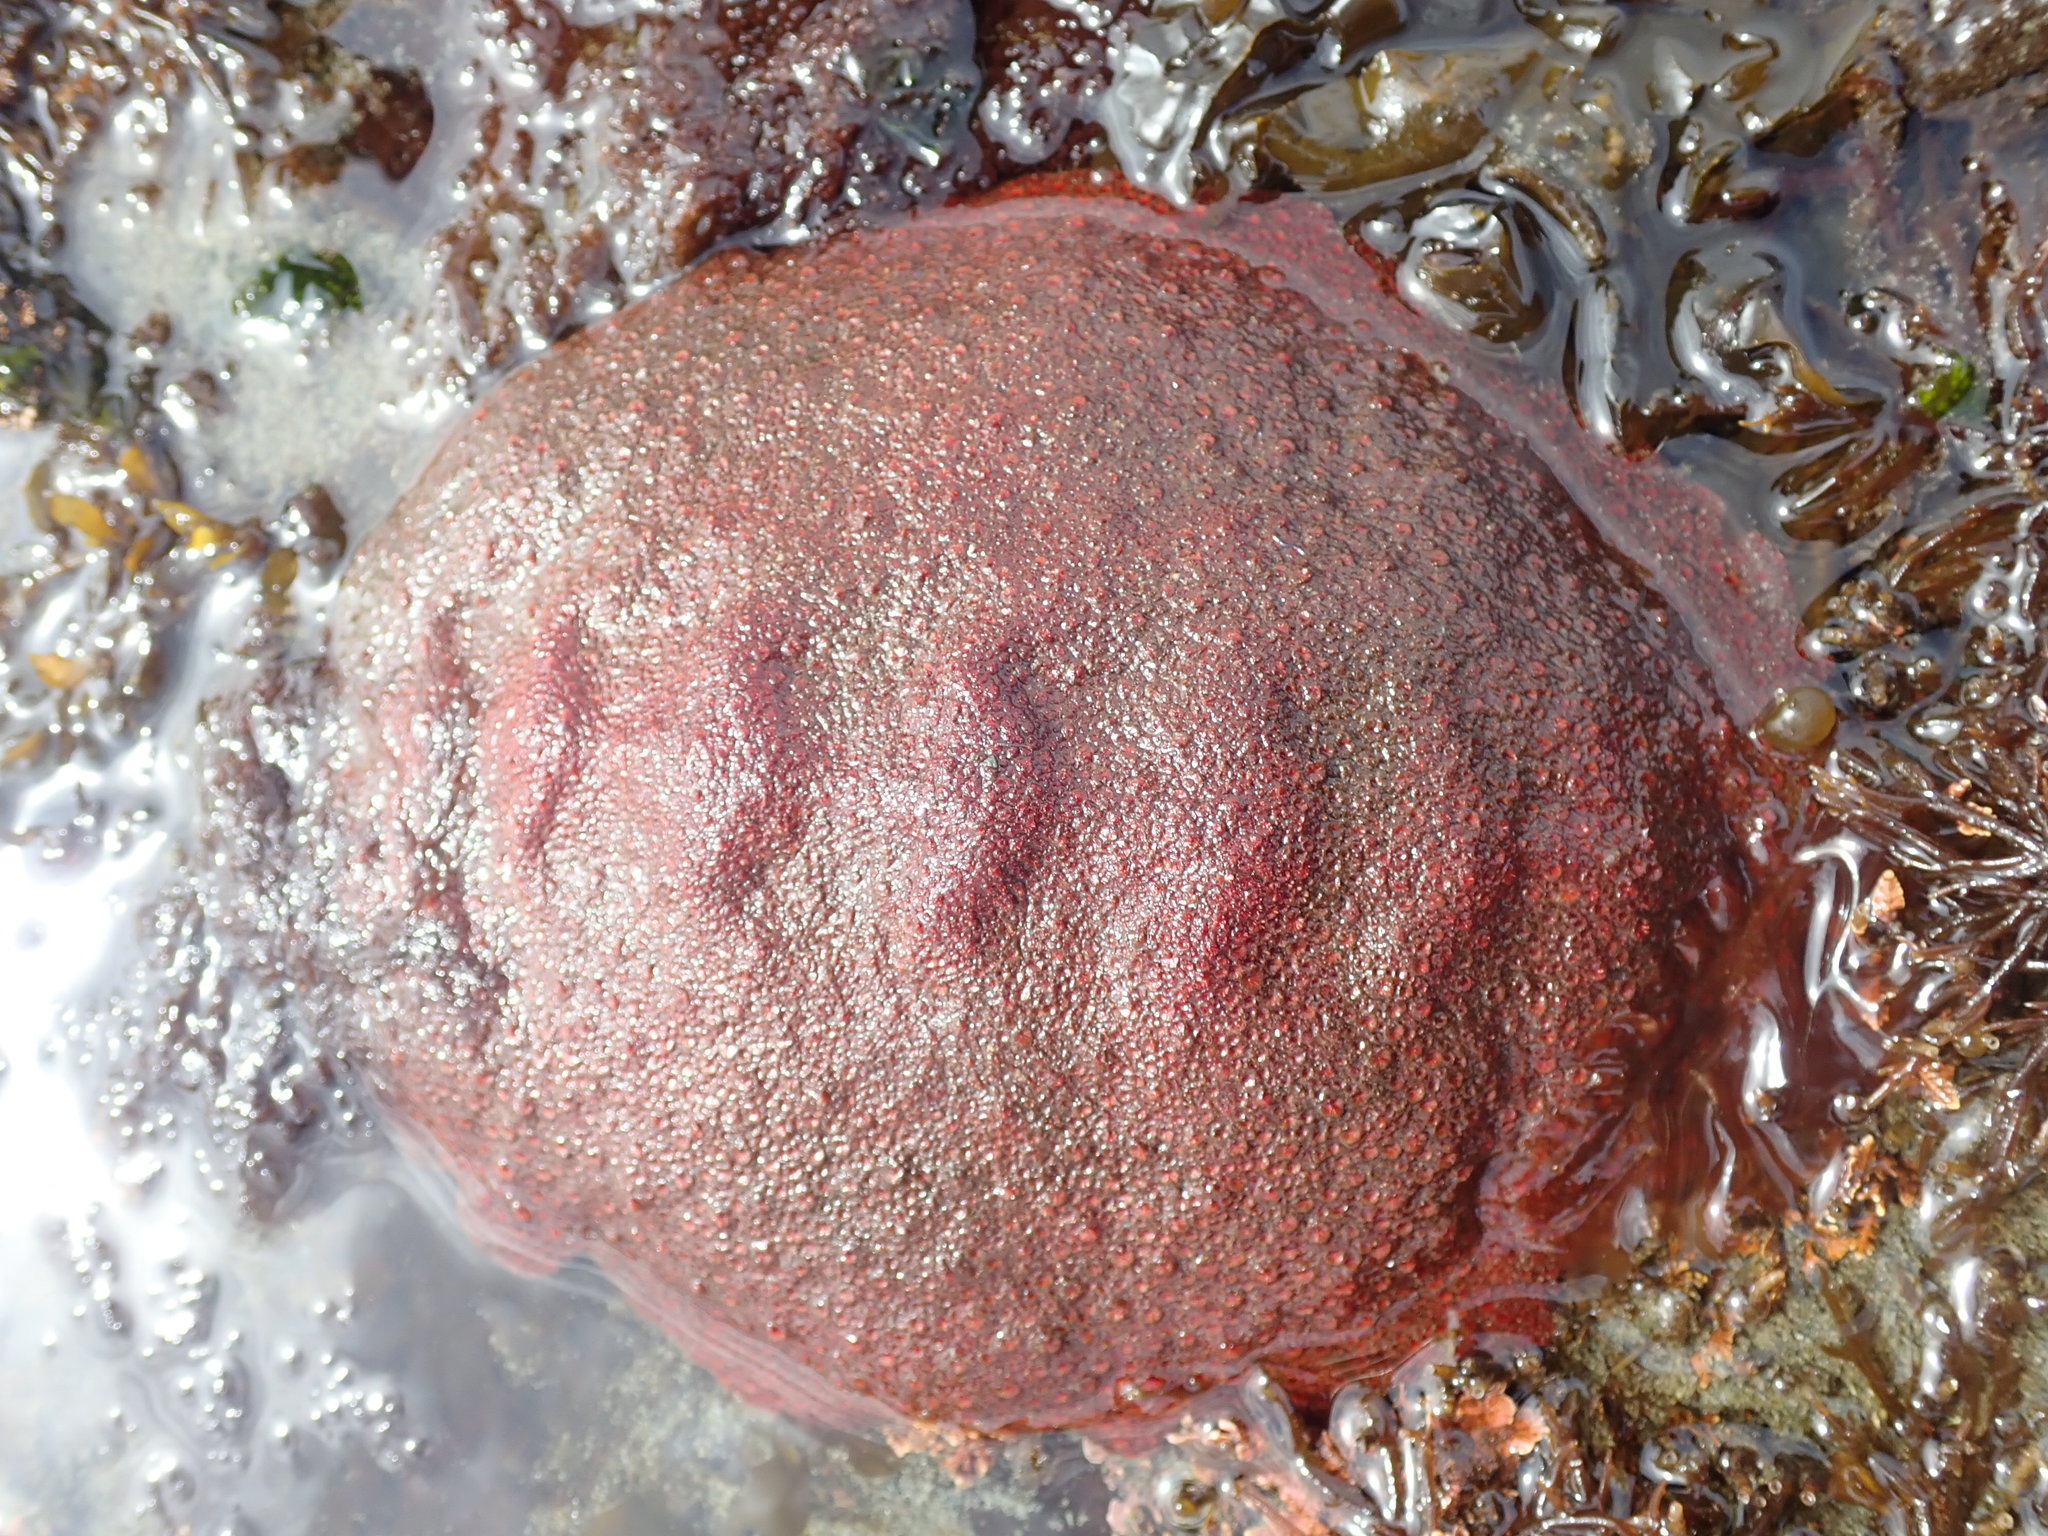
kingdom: Animalia
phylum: Mollusca
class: Polyplacophora
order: Chitonida
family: Acanthochitonidae
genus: Cryptochiton
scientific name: Cryptochiton stelleri
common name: Giant pacific chiton
